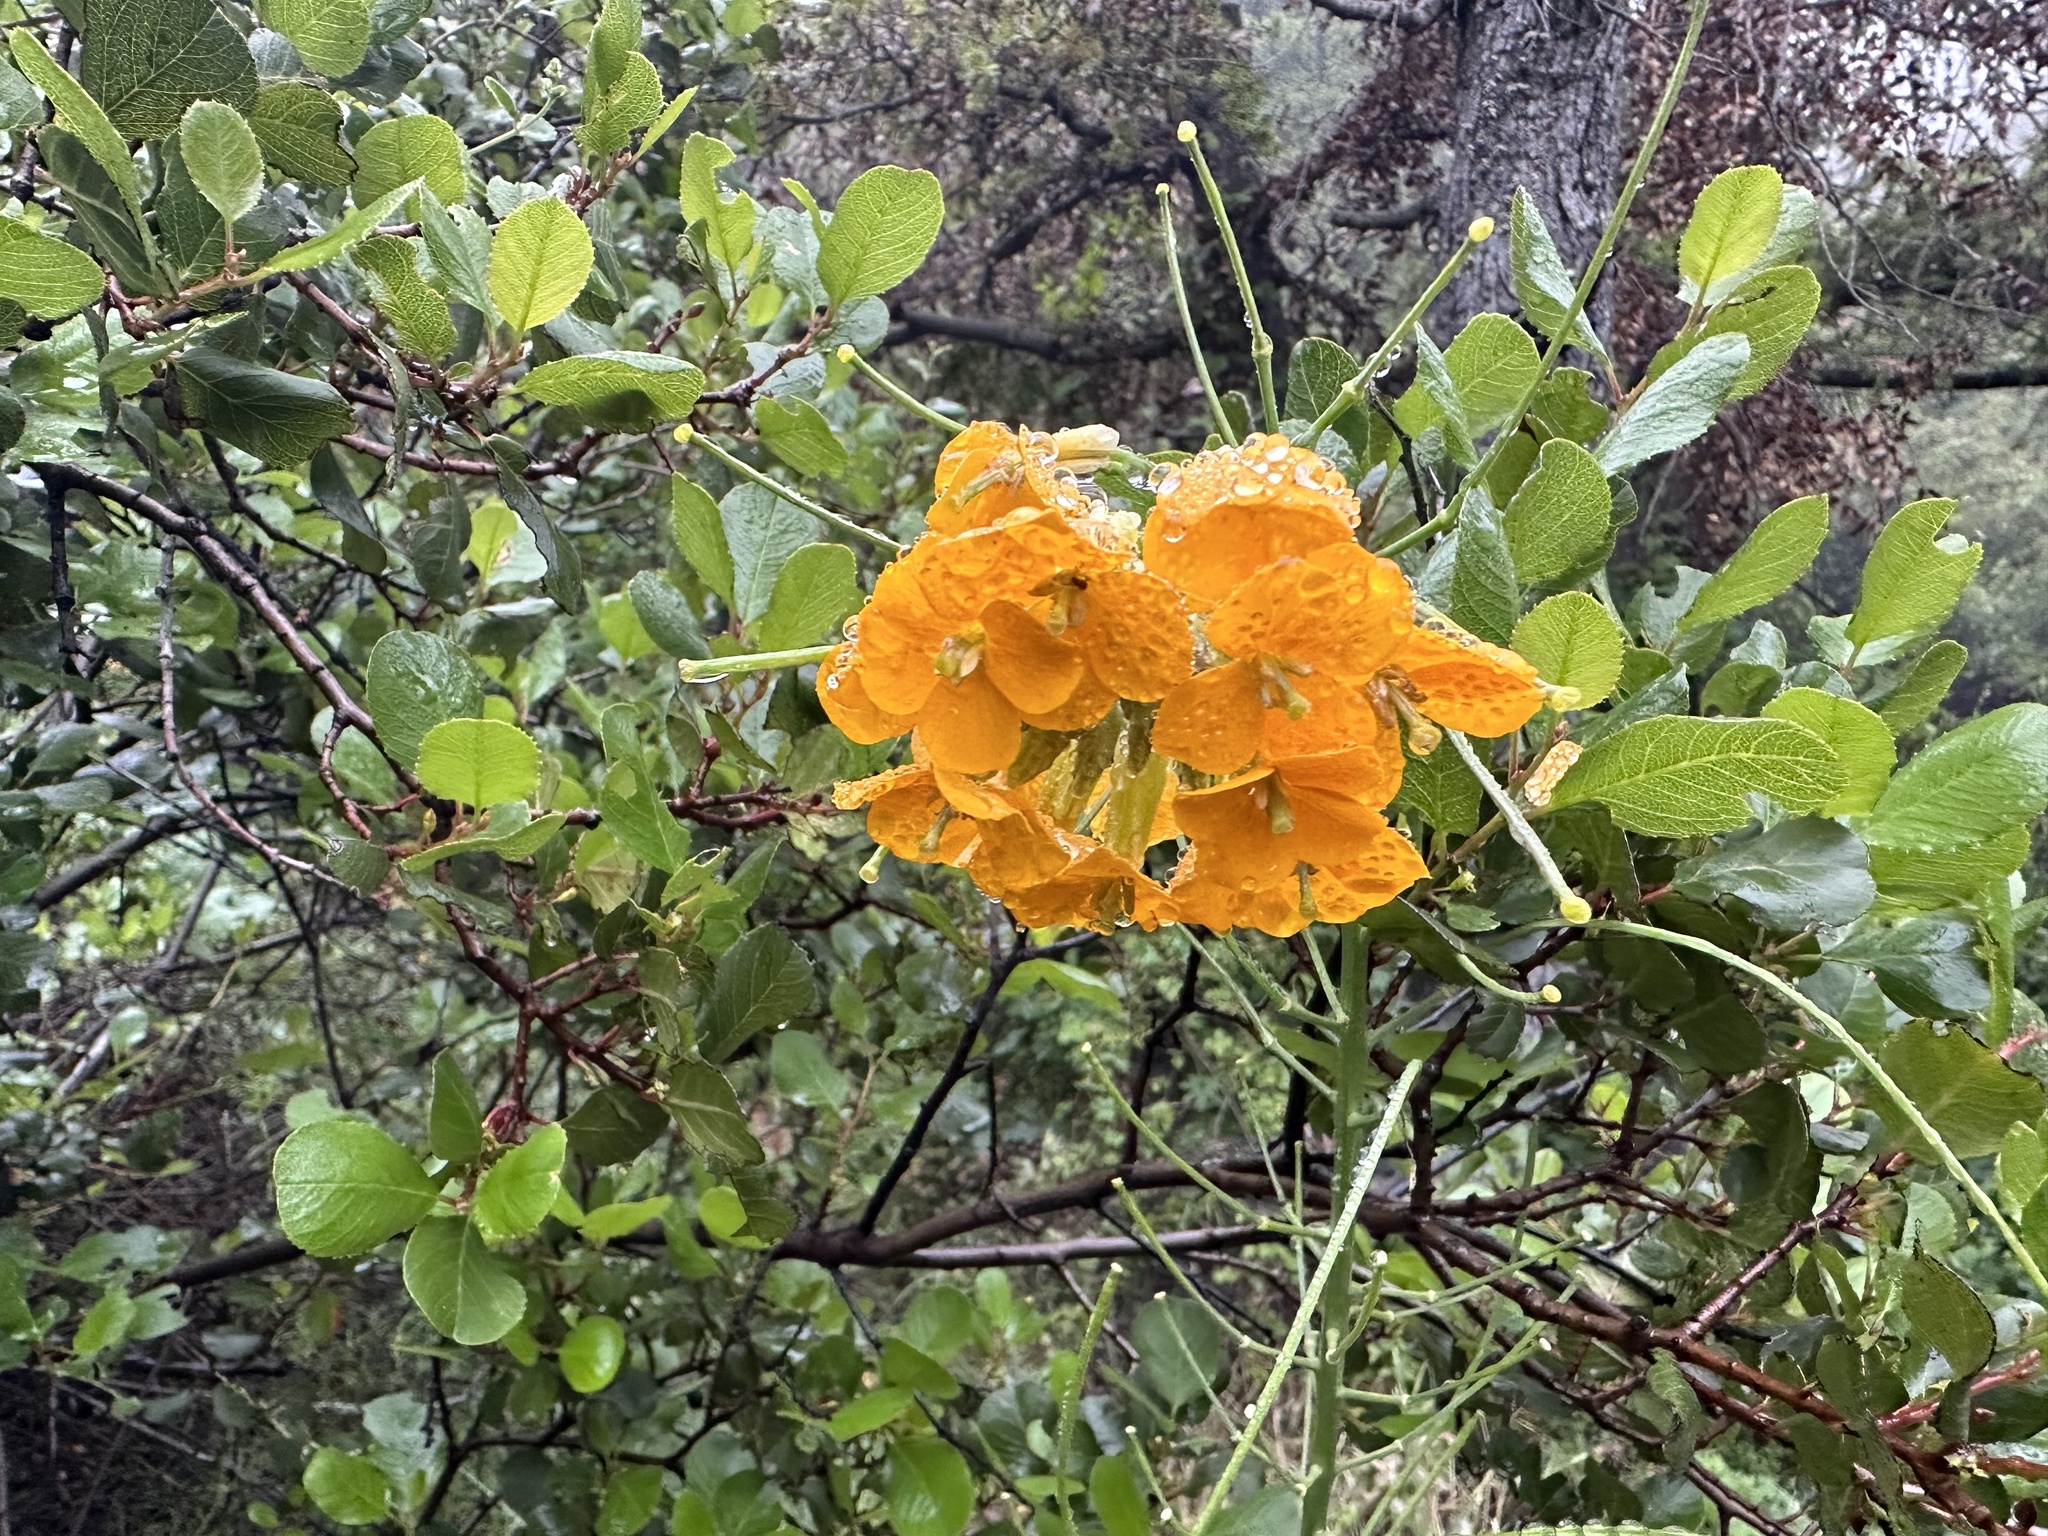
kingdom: Plantae
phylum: Tracheophyta
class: Magnoliopsida
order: Brassicales
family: Brassicaceae
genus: Erysimum
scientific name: Erysimum capitatum
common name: Western wallflower
